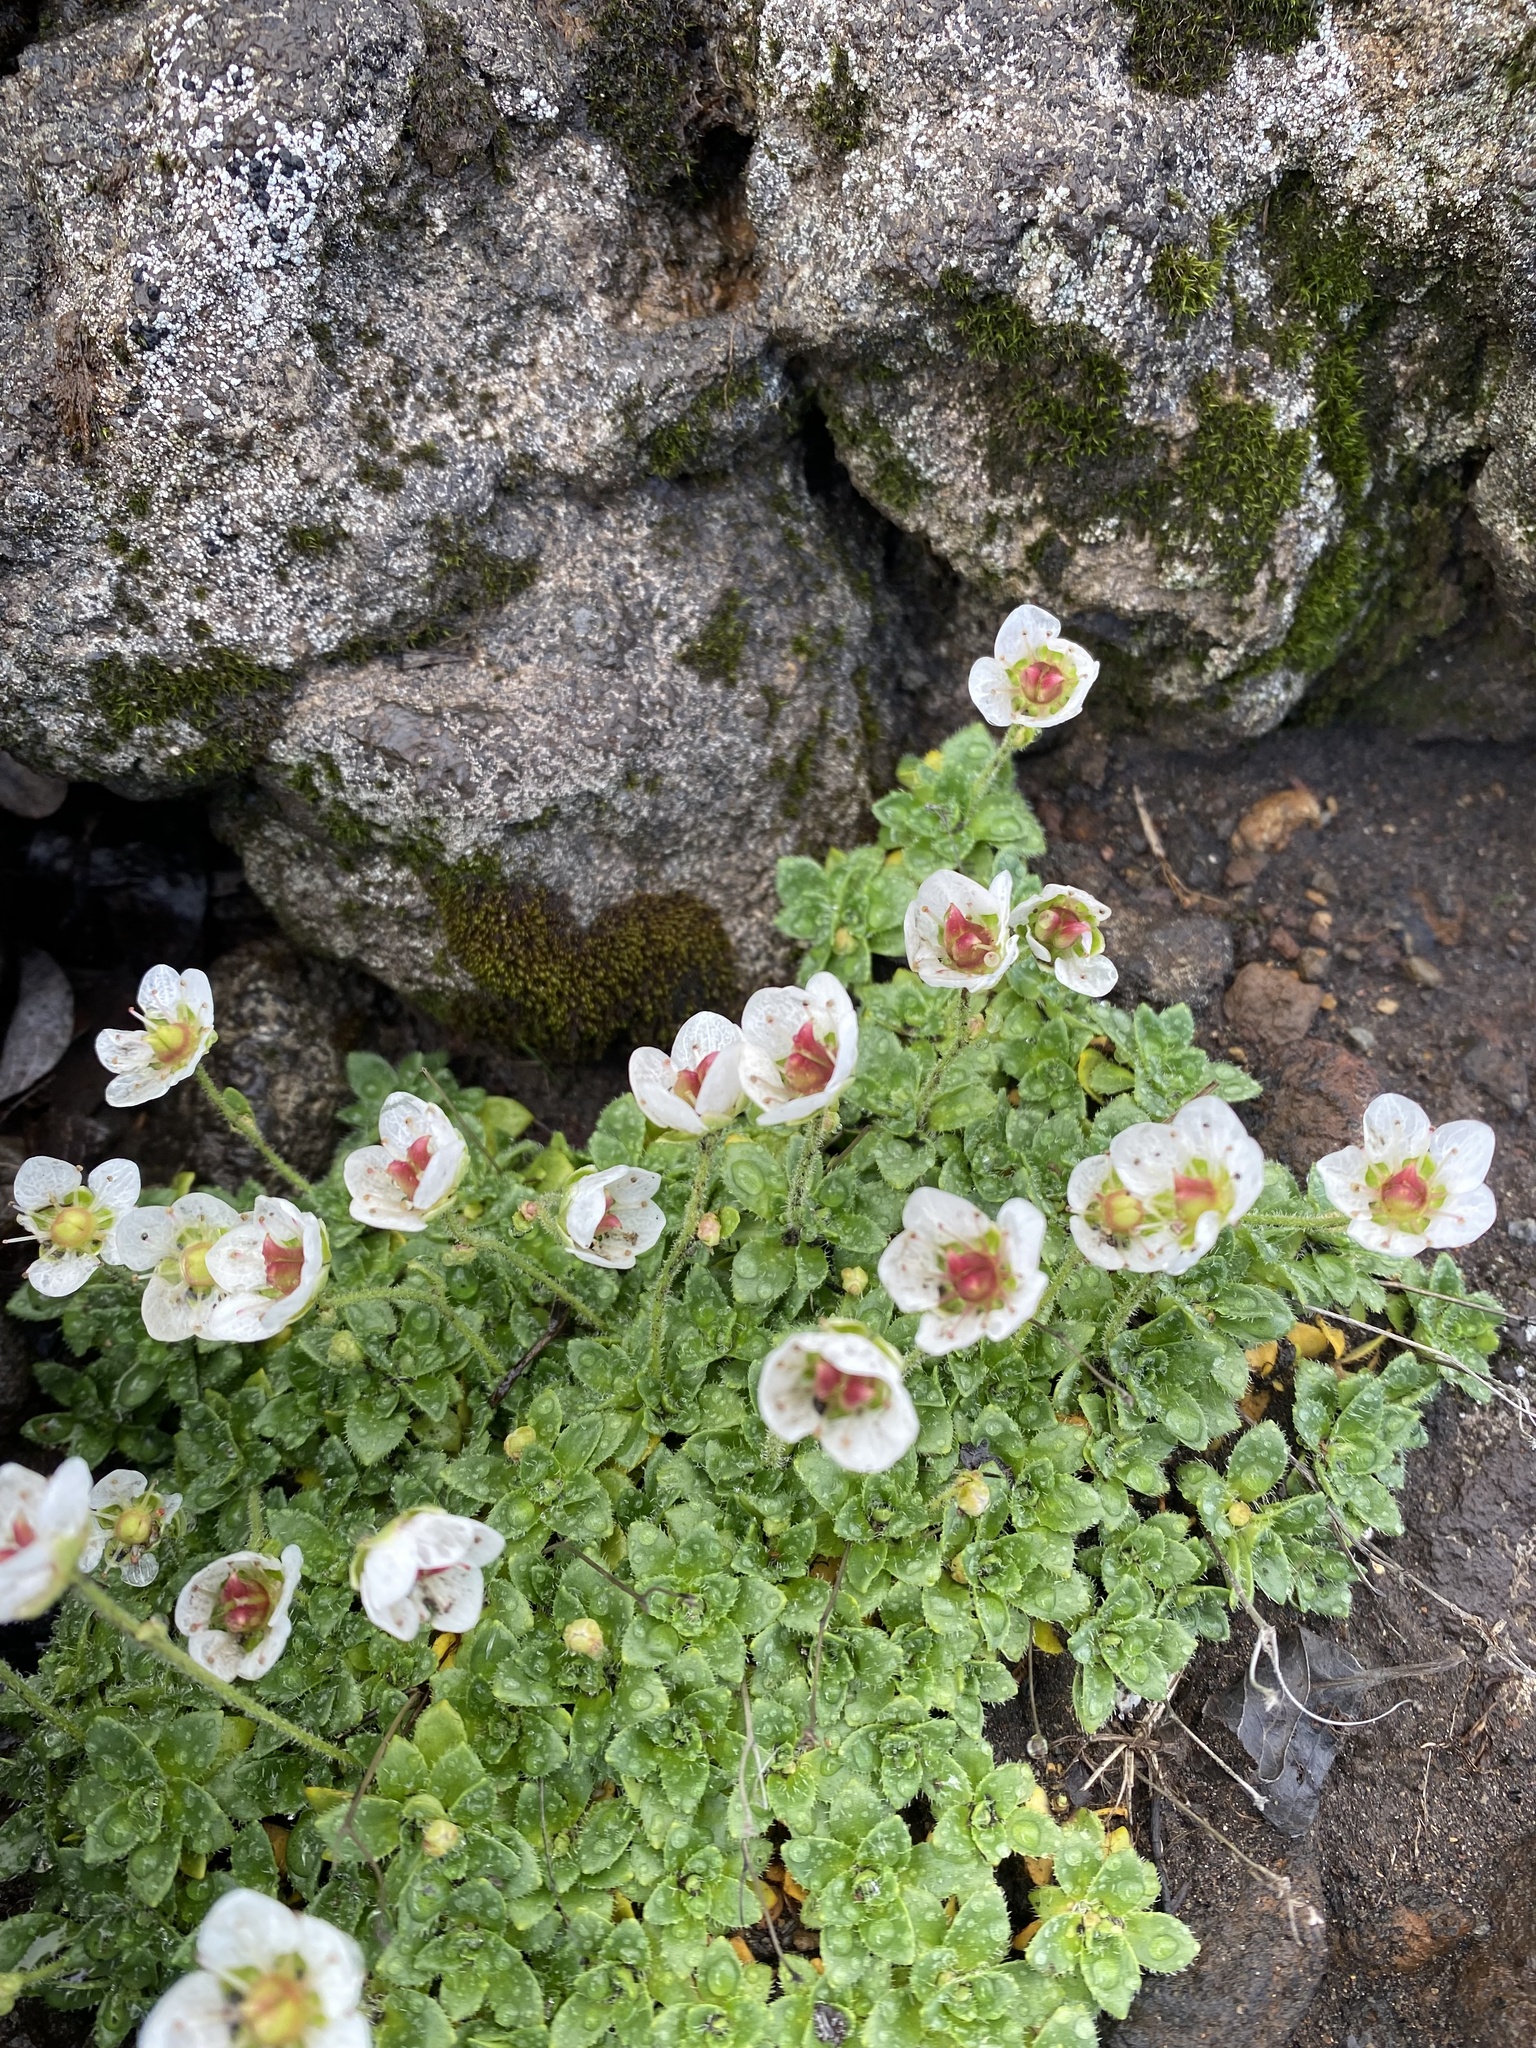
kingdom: Plantae
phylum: Tracheophyta
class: Magnoliopsida
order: Saxifragales
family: Saxifragaceae
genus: Micranthes
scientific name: Micranthes merkii
